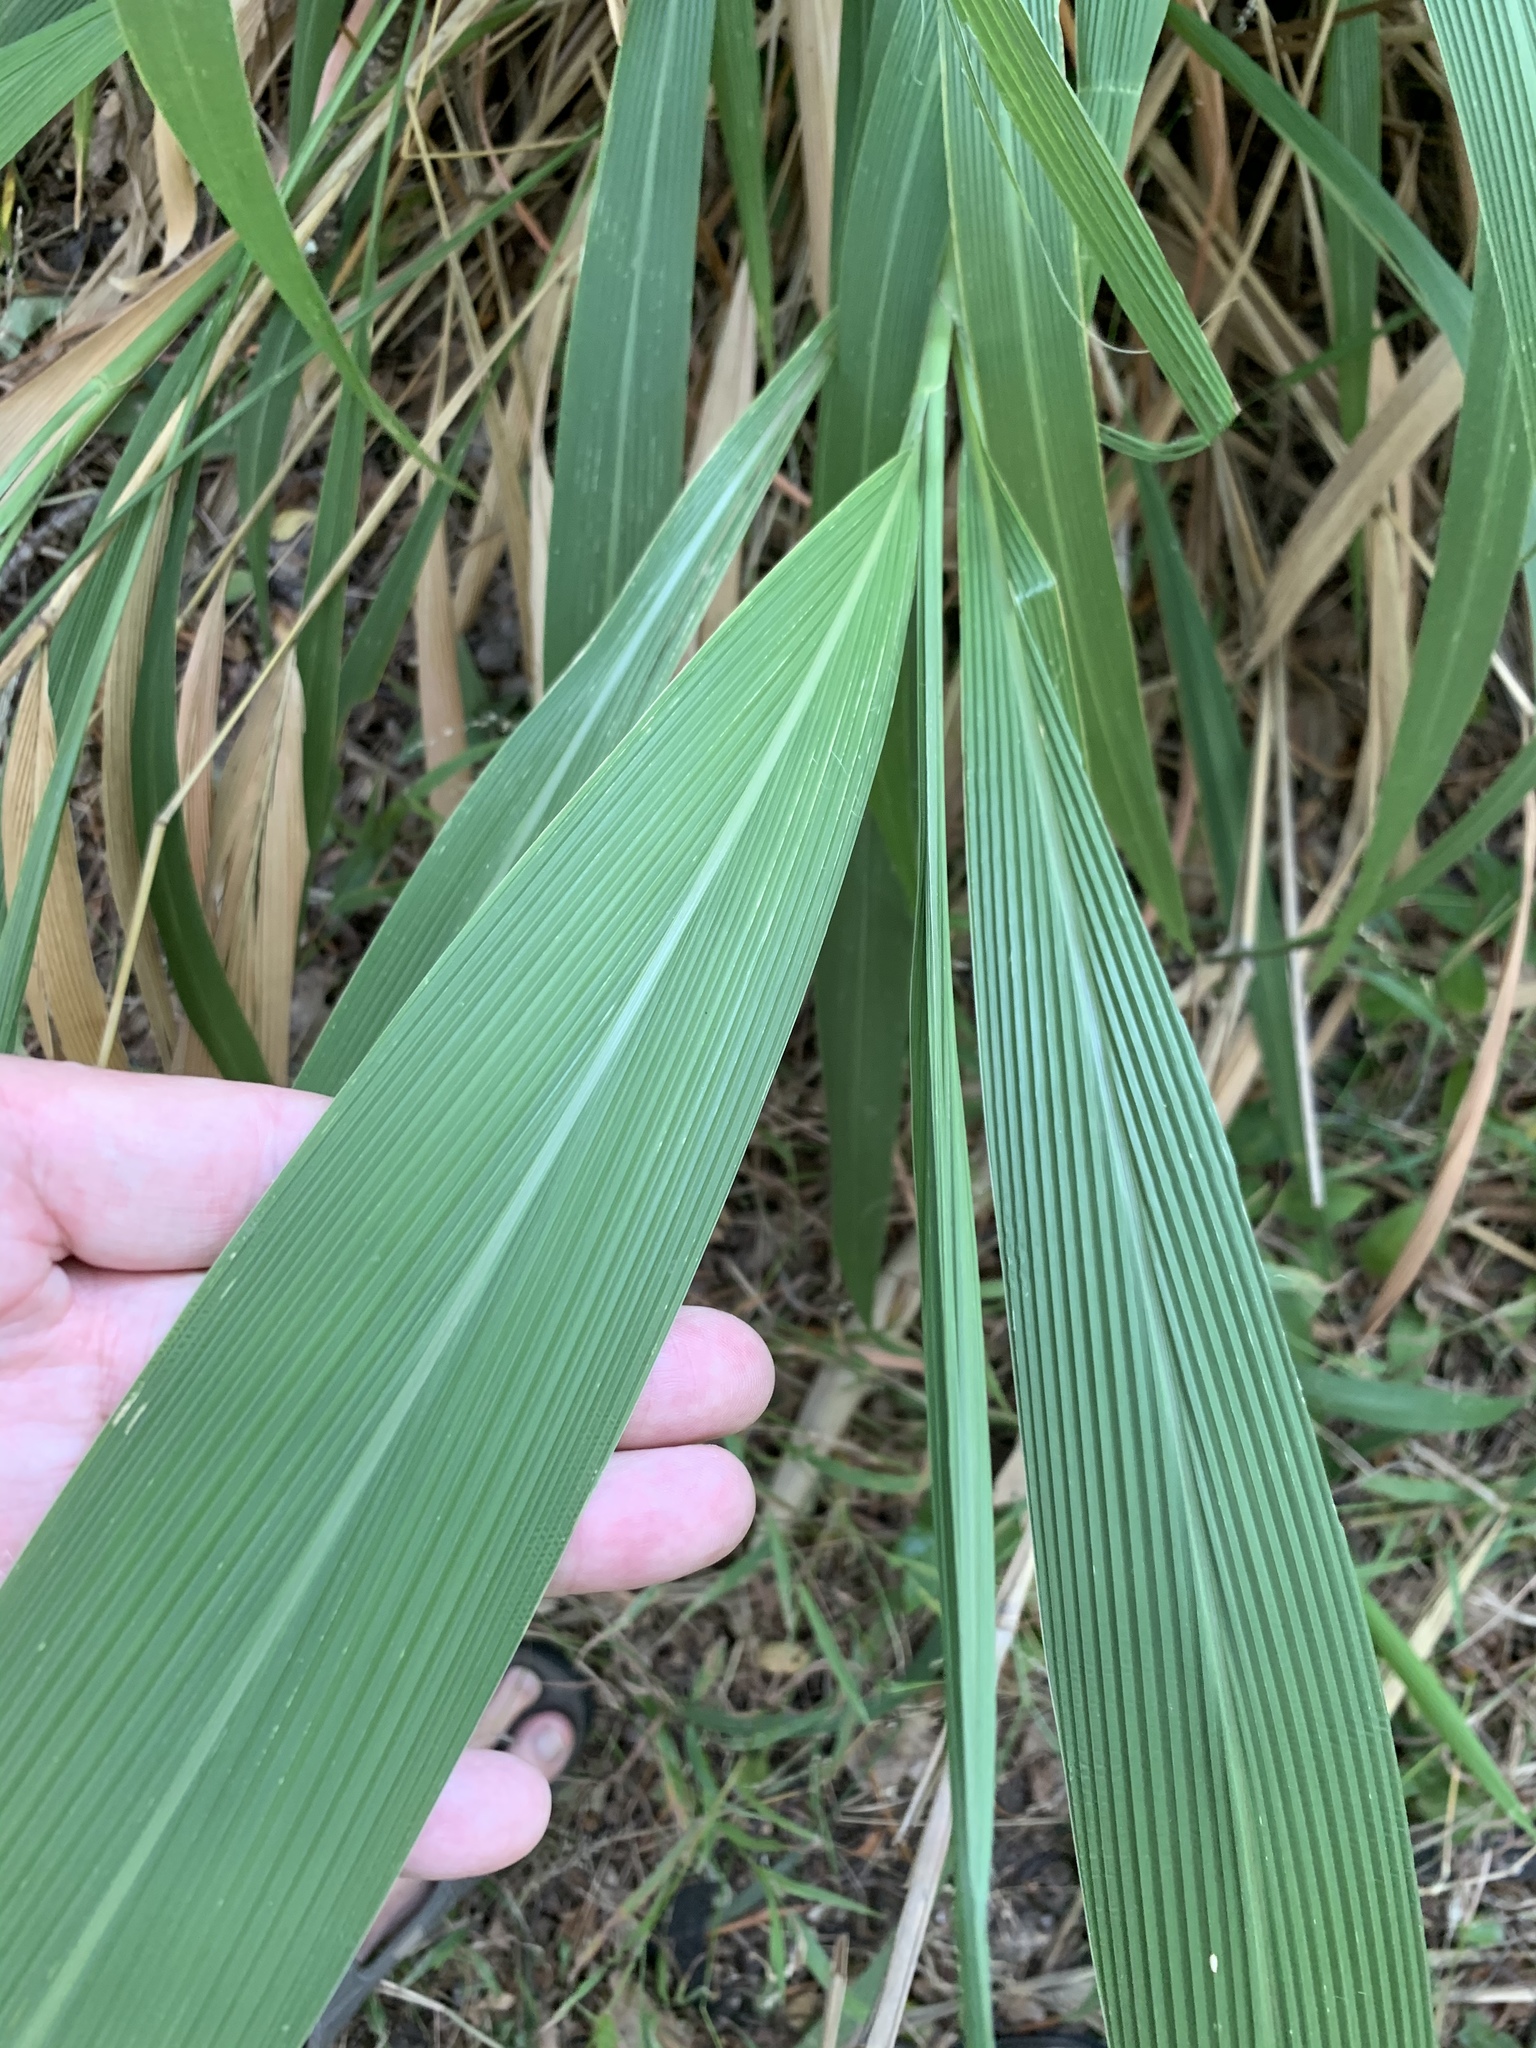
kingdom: Plantae
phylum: Tracheophyta
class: Liliopsida
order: Poales
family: Poaceae
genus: Setaria
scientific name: Setaria megaphylla
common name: Bigleaf bristlegrass
